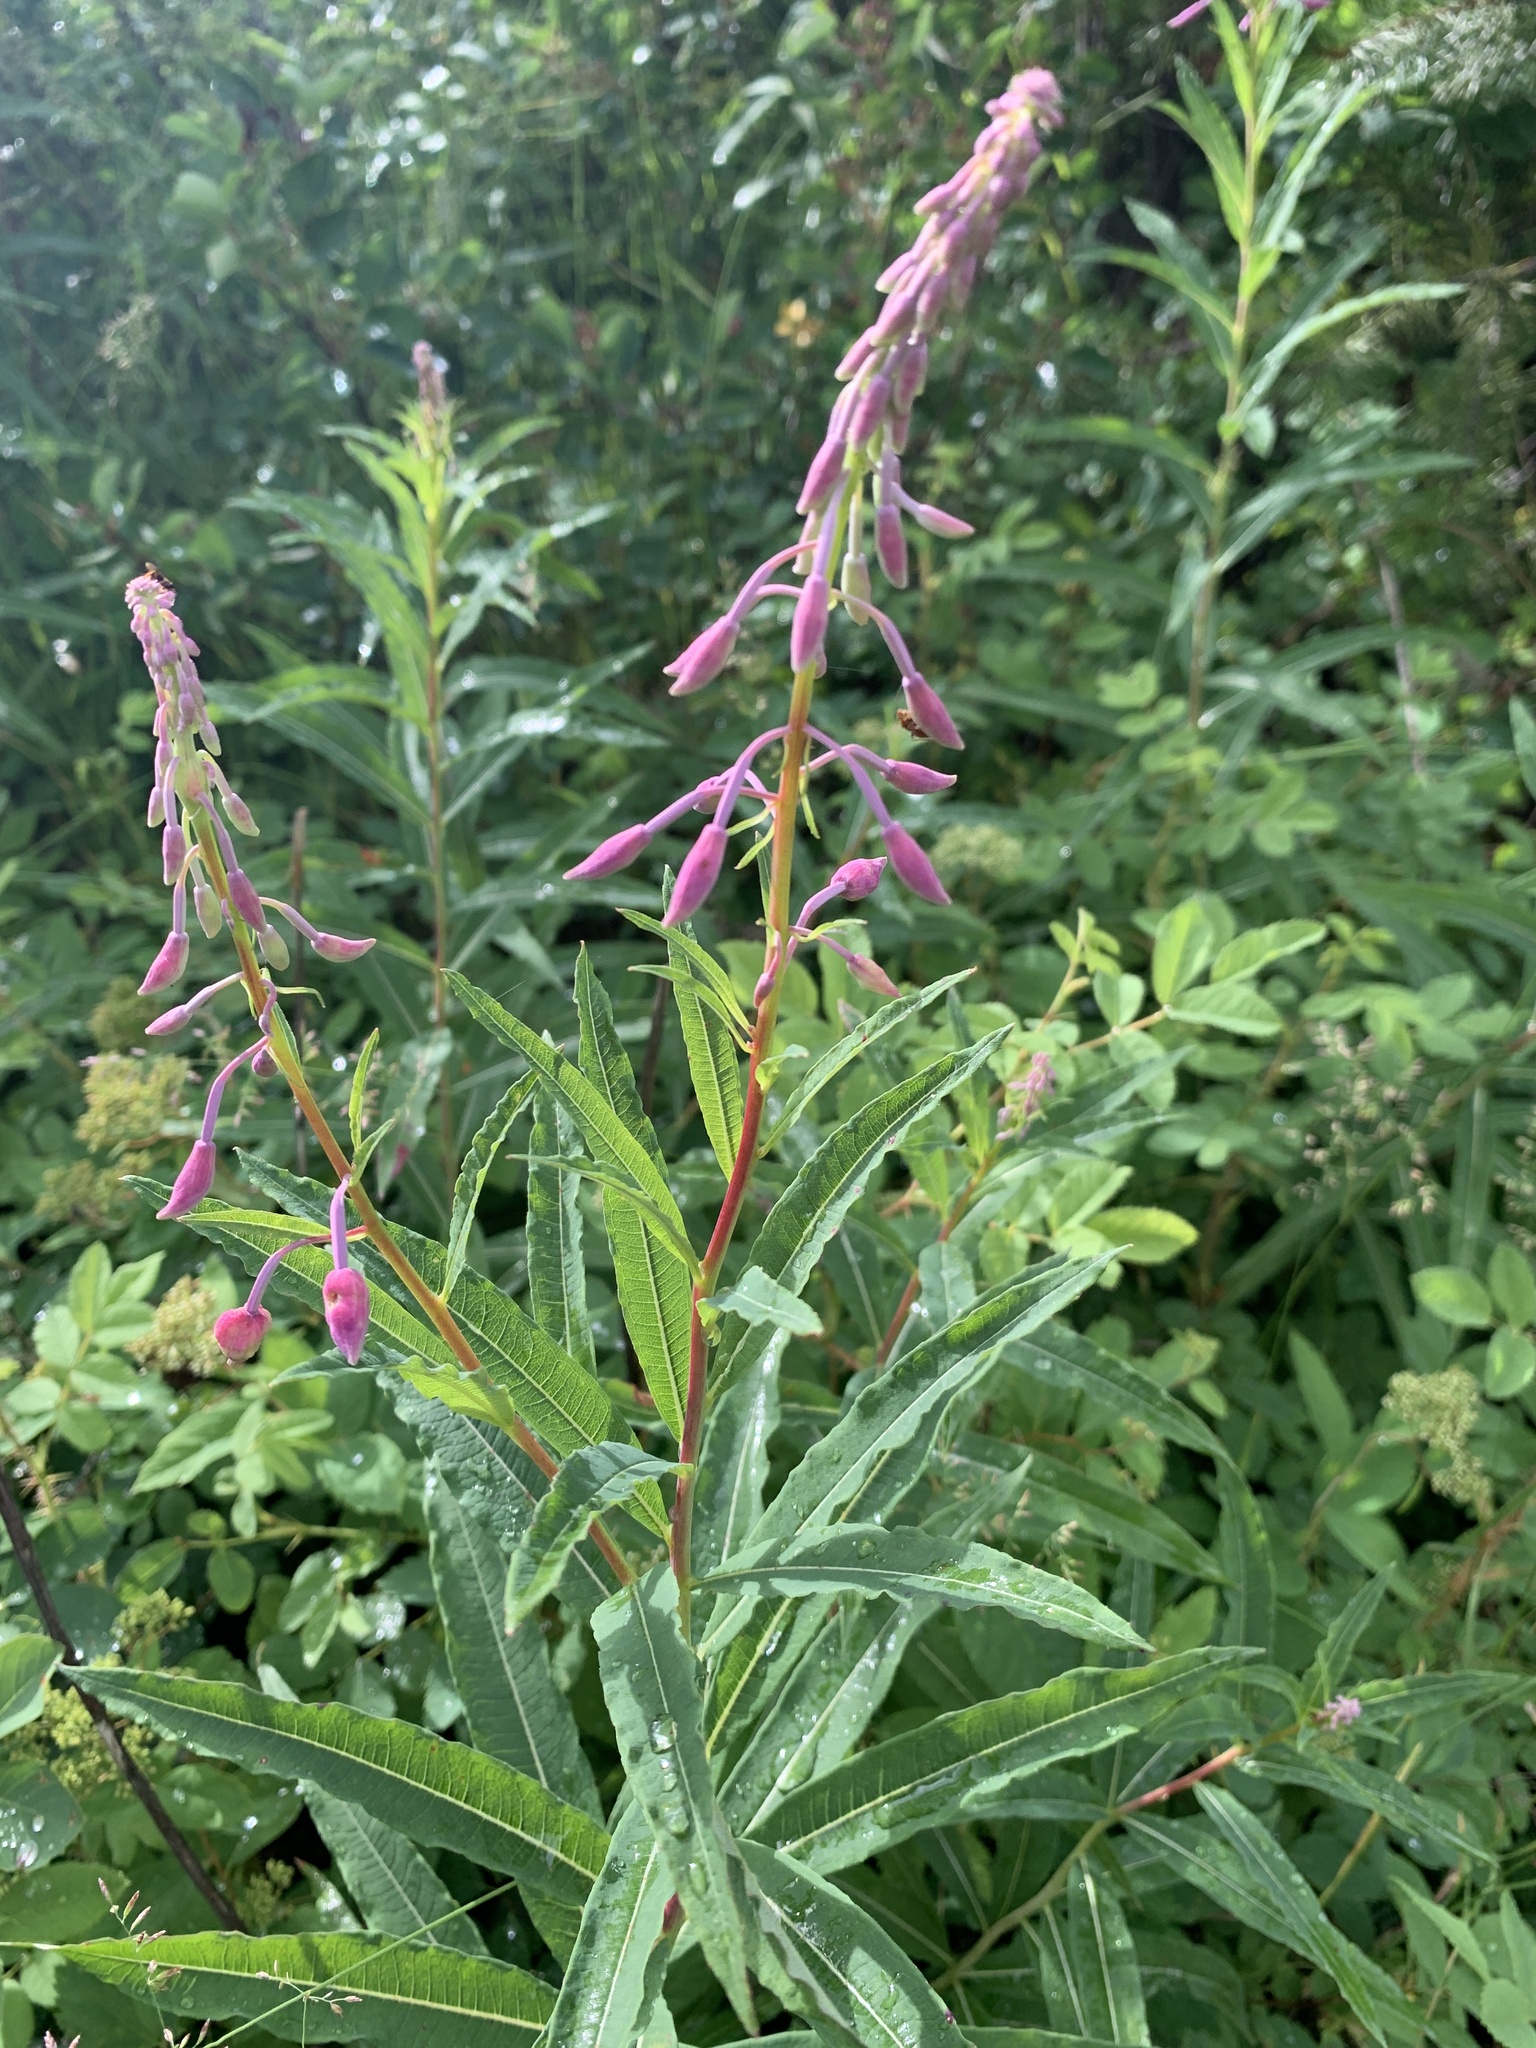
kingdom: Plantae
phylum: Tracheophyta
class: Magnoliopsida
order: Myrtales
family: Onagraceae
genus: Chamaenerion
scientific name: Chamaenerion angustifolium
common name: Fireweed
